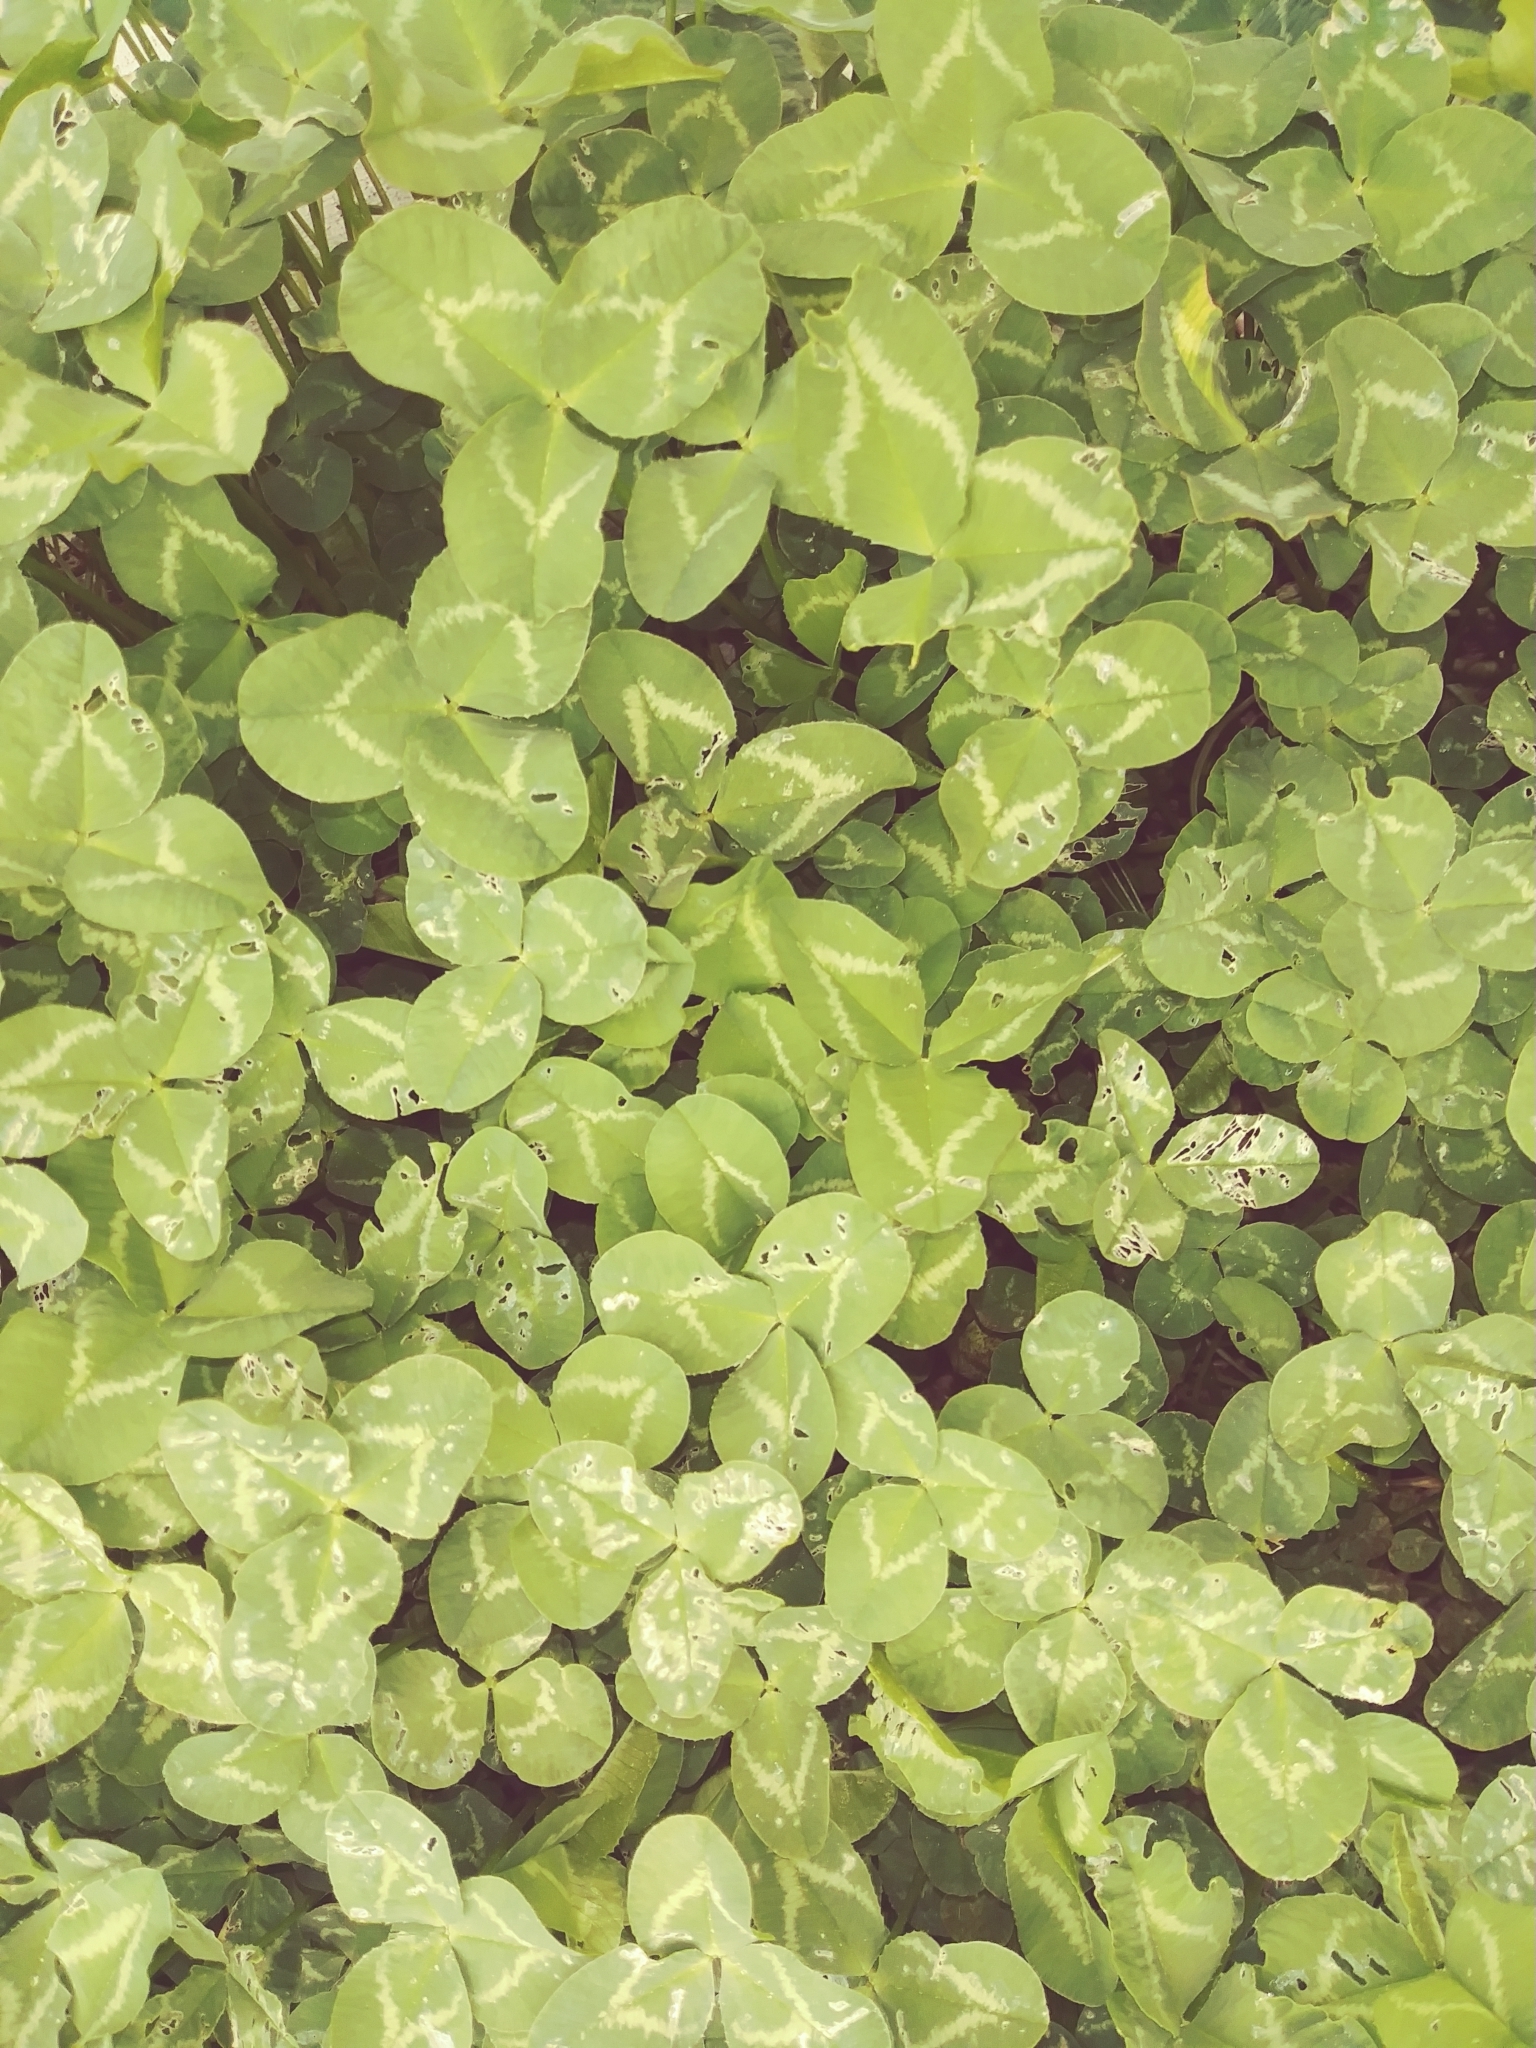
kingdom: Plantae
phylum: Tracheophyta
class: Magnoliopsida
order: Fabales
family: Fabaceae
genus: Trifolium
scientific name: Trifolium repens
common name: White clover
